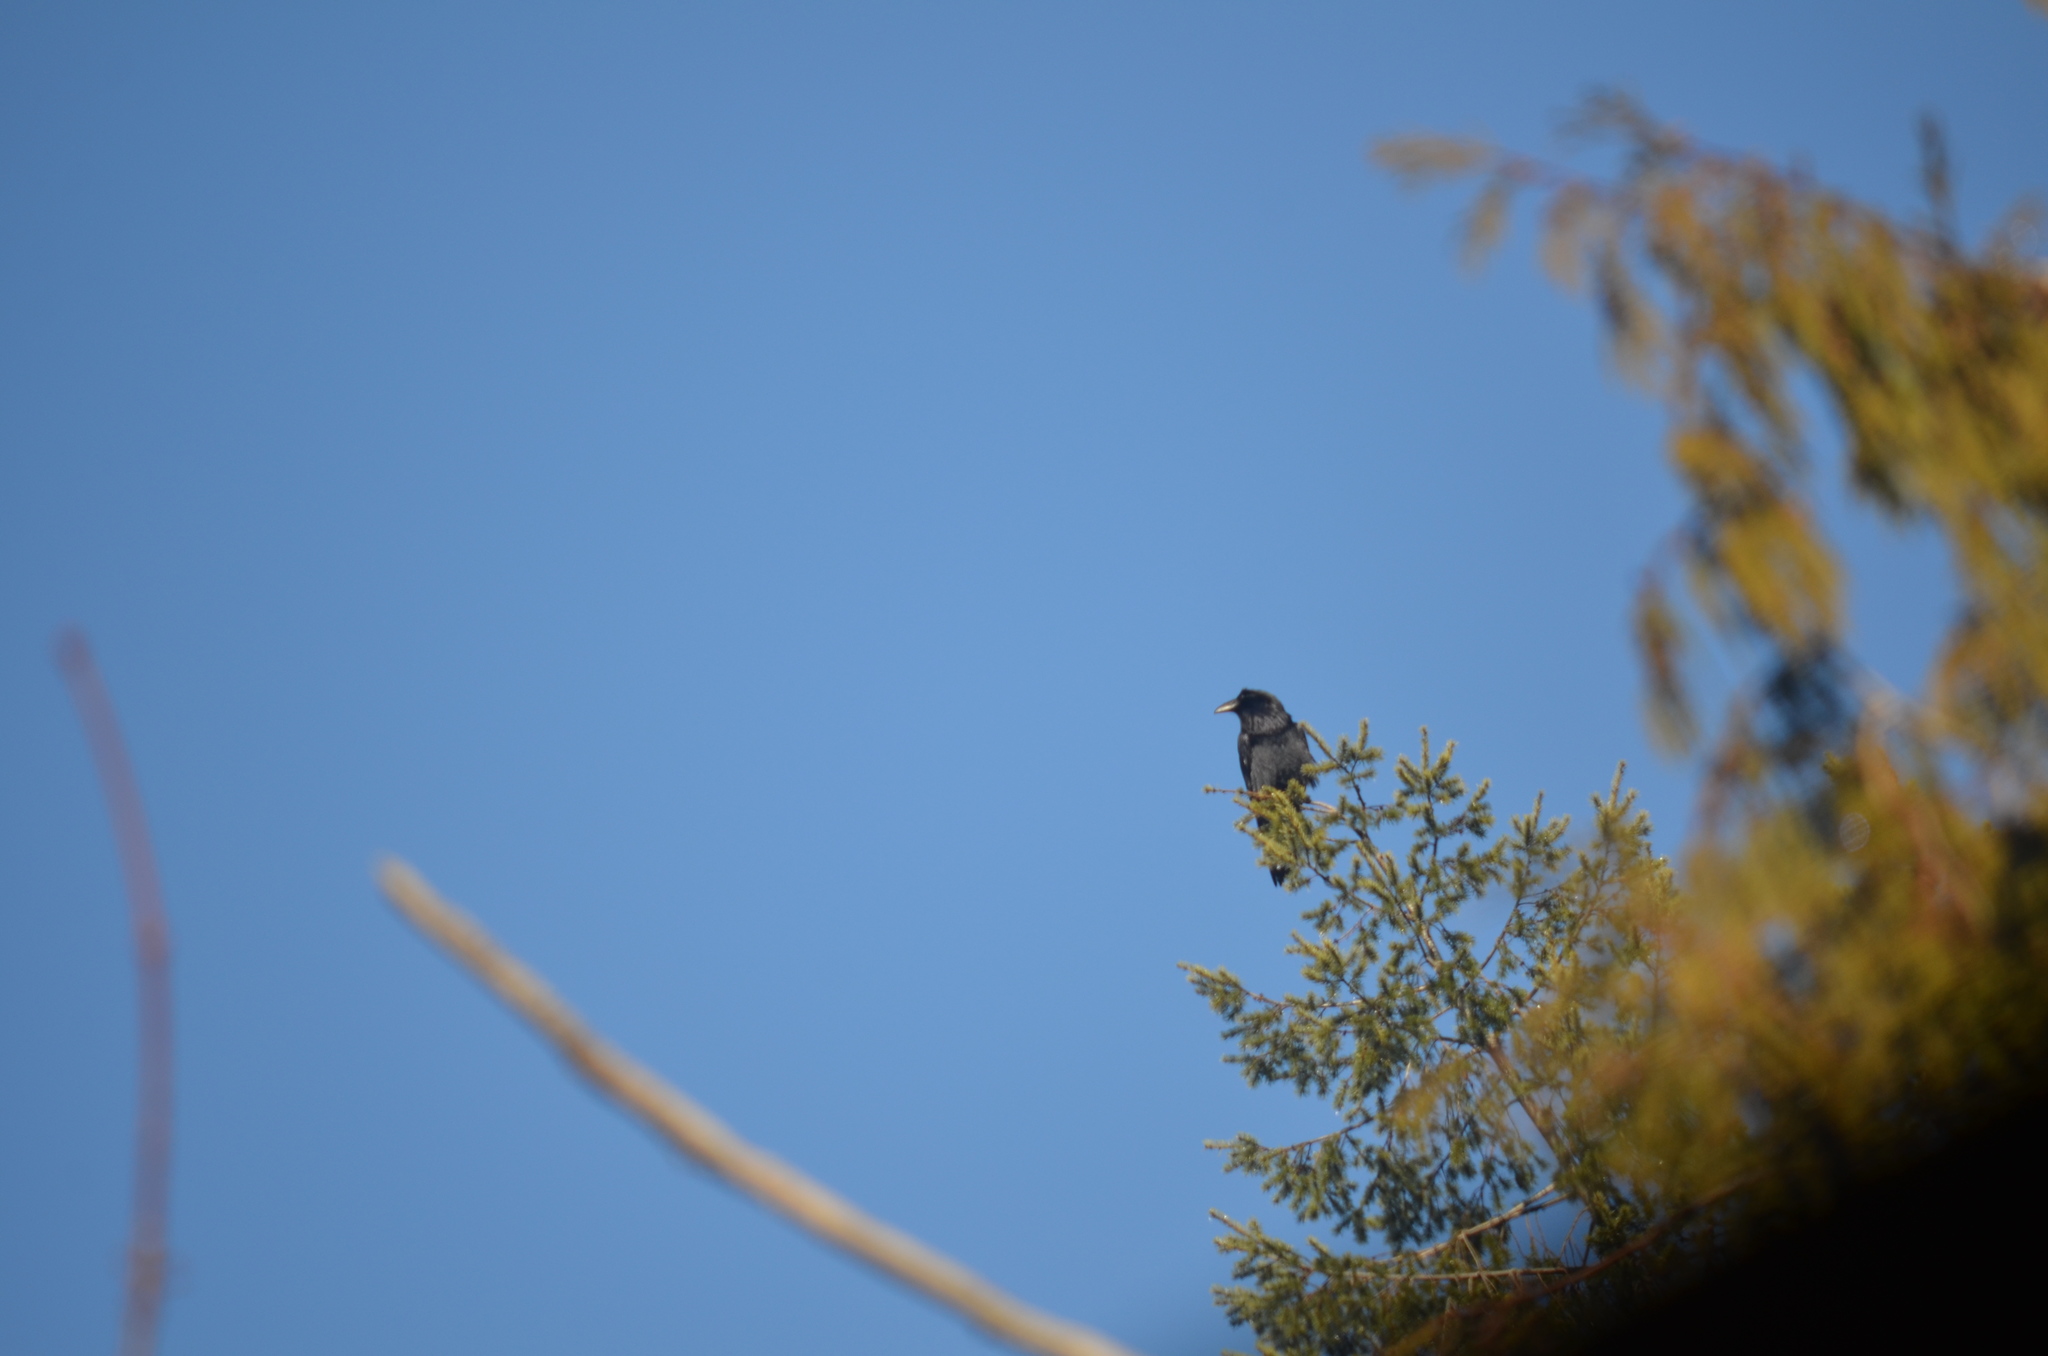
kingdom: Animalia
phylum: Chordata
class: Aves
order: Passeriformes
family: Corvidae
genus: Corvus
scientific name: Corvus corax
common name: Common raven
